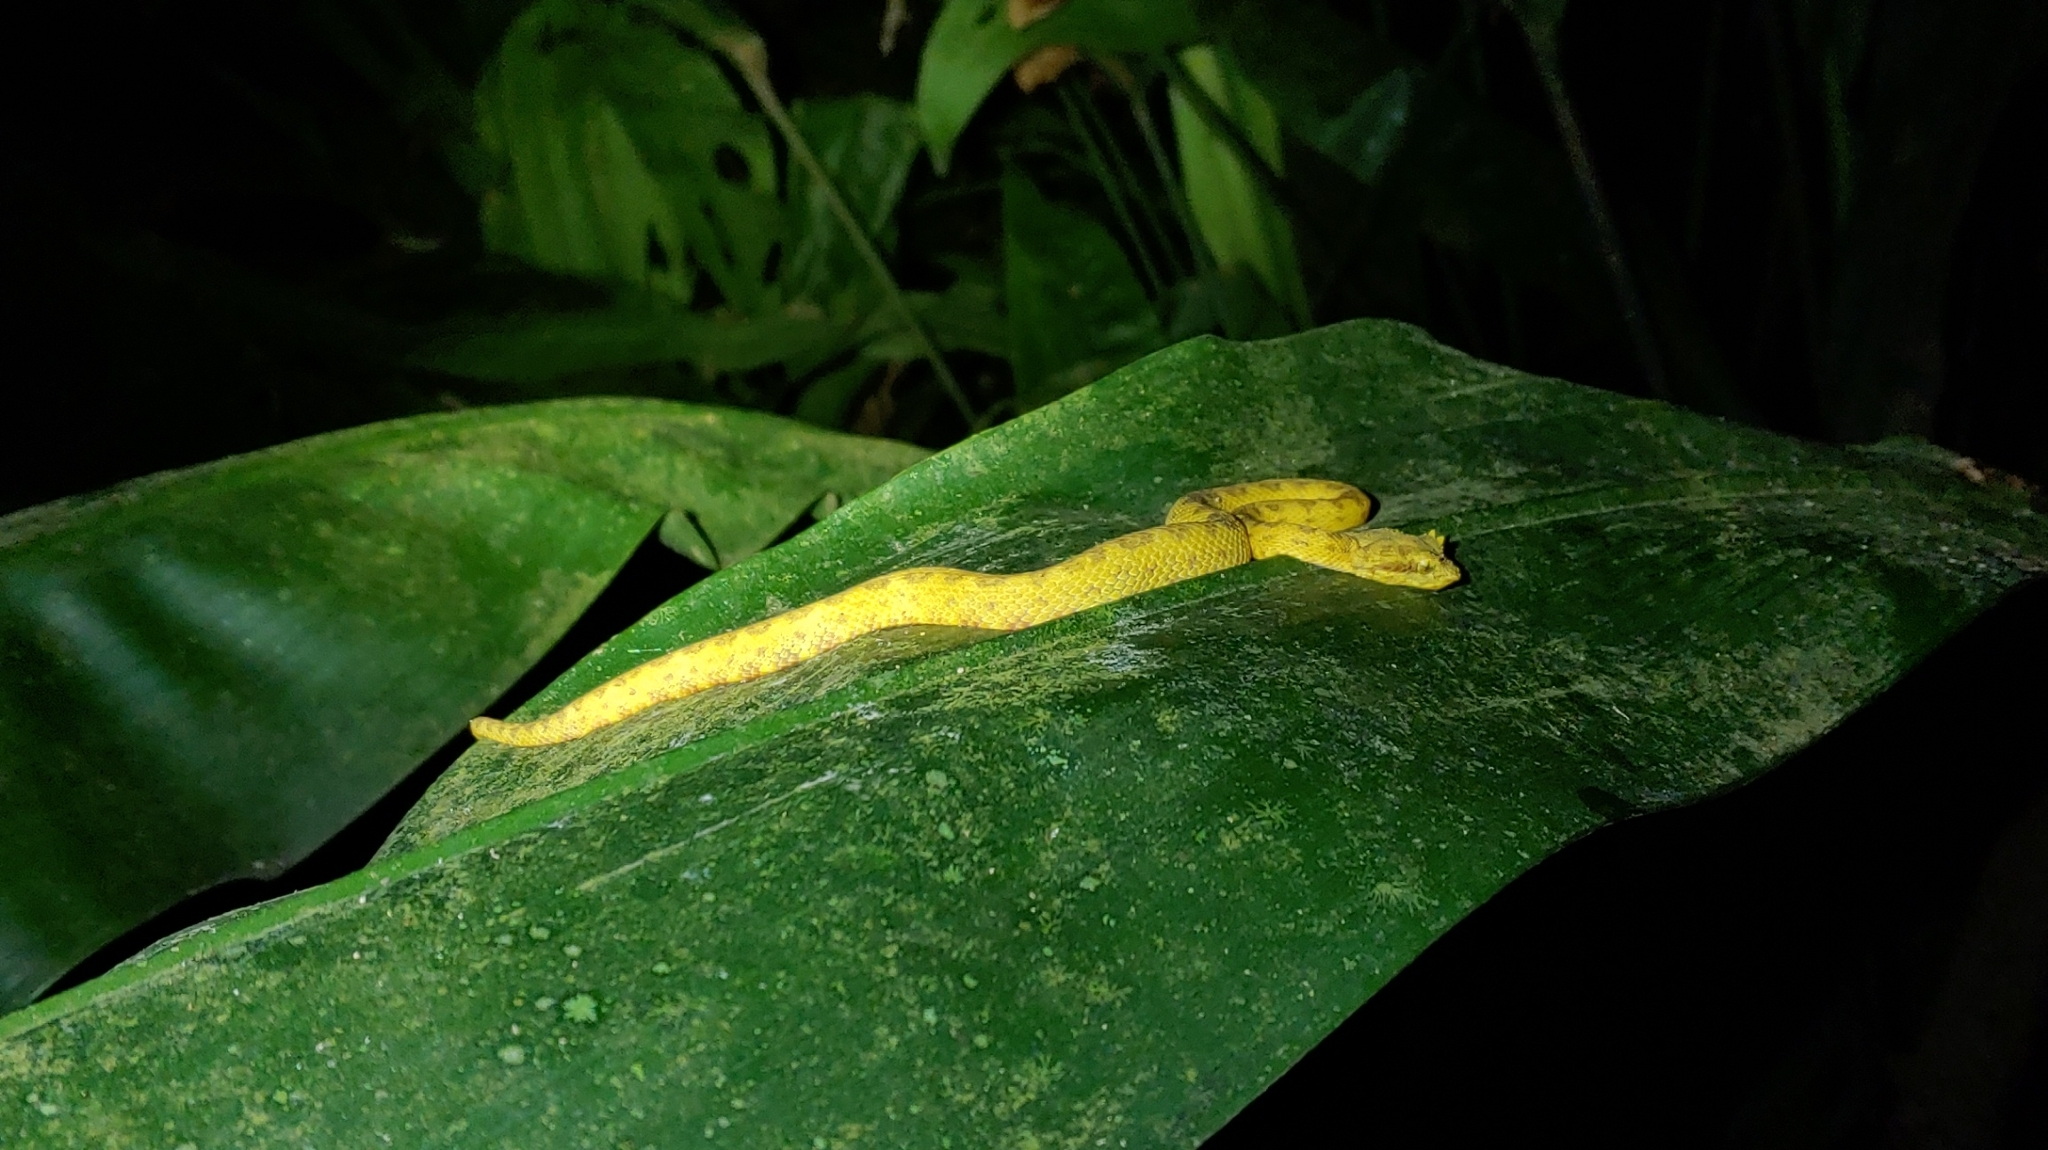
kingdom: Animalia
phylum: Chordata
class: Squamata
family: Viperidae
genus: Bothriechis
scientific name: Bothriechis schlegelii
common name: Eyelash viper
